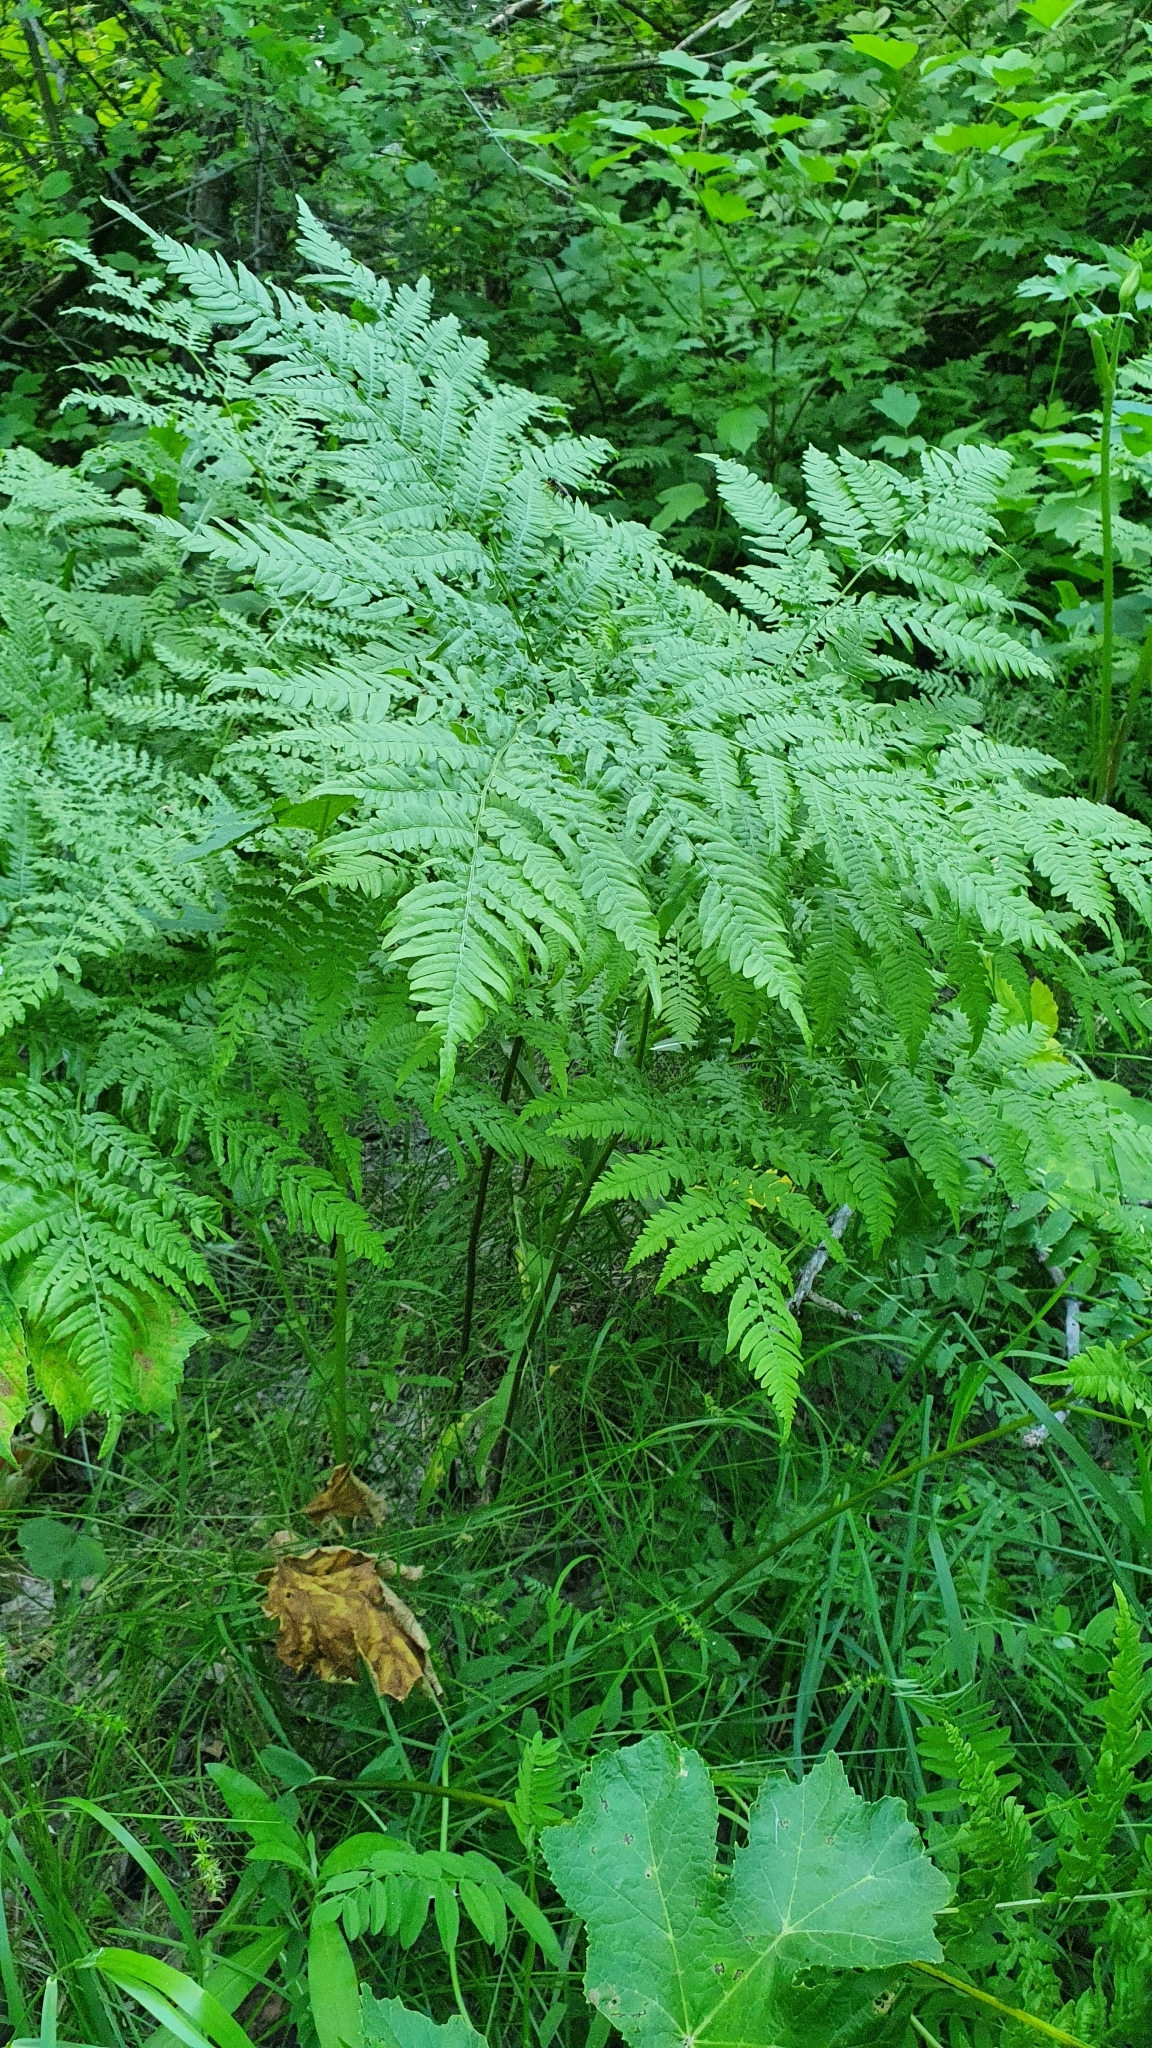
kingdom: Plantae
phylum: Tracheophyta
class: Polypodiopsida
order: Polypodiales
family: Dennstaedtiaceae
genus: Pteridium
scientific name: Pteridium aquilinum
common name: Bracken
